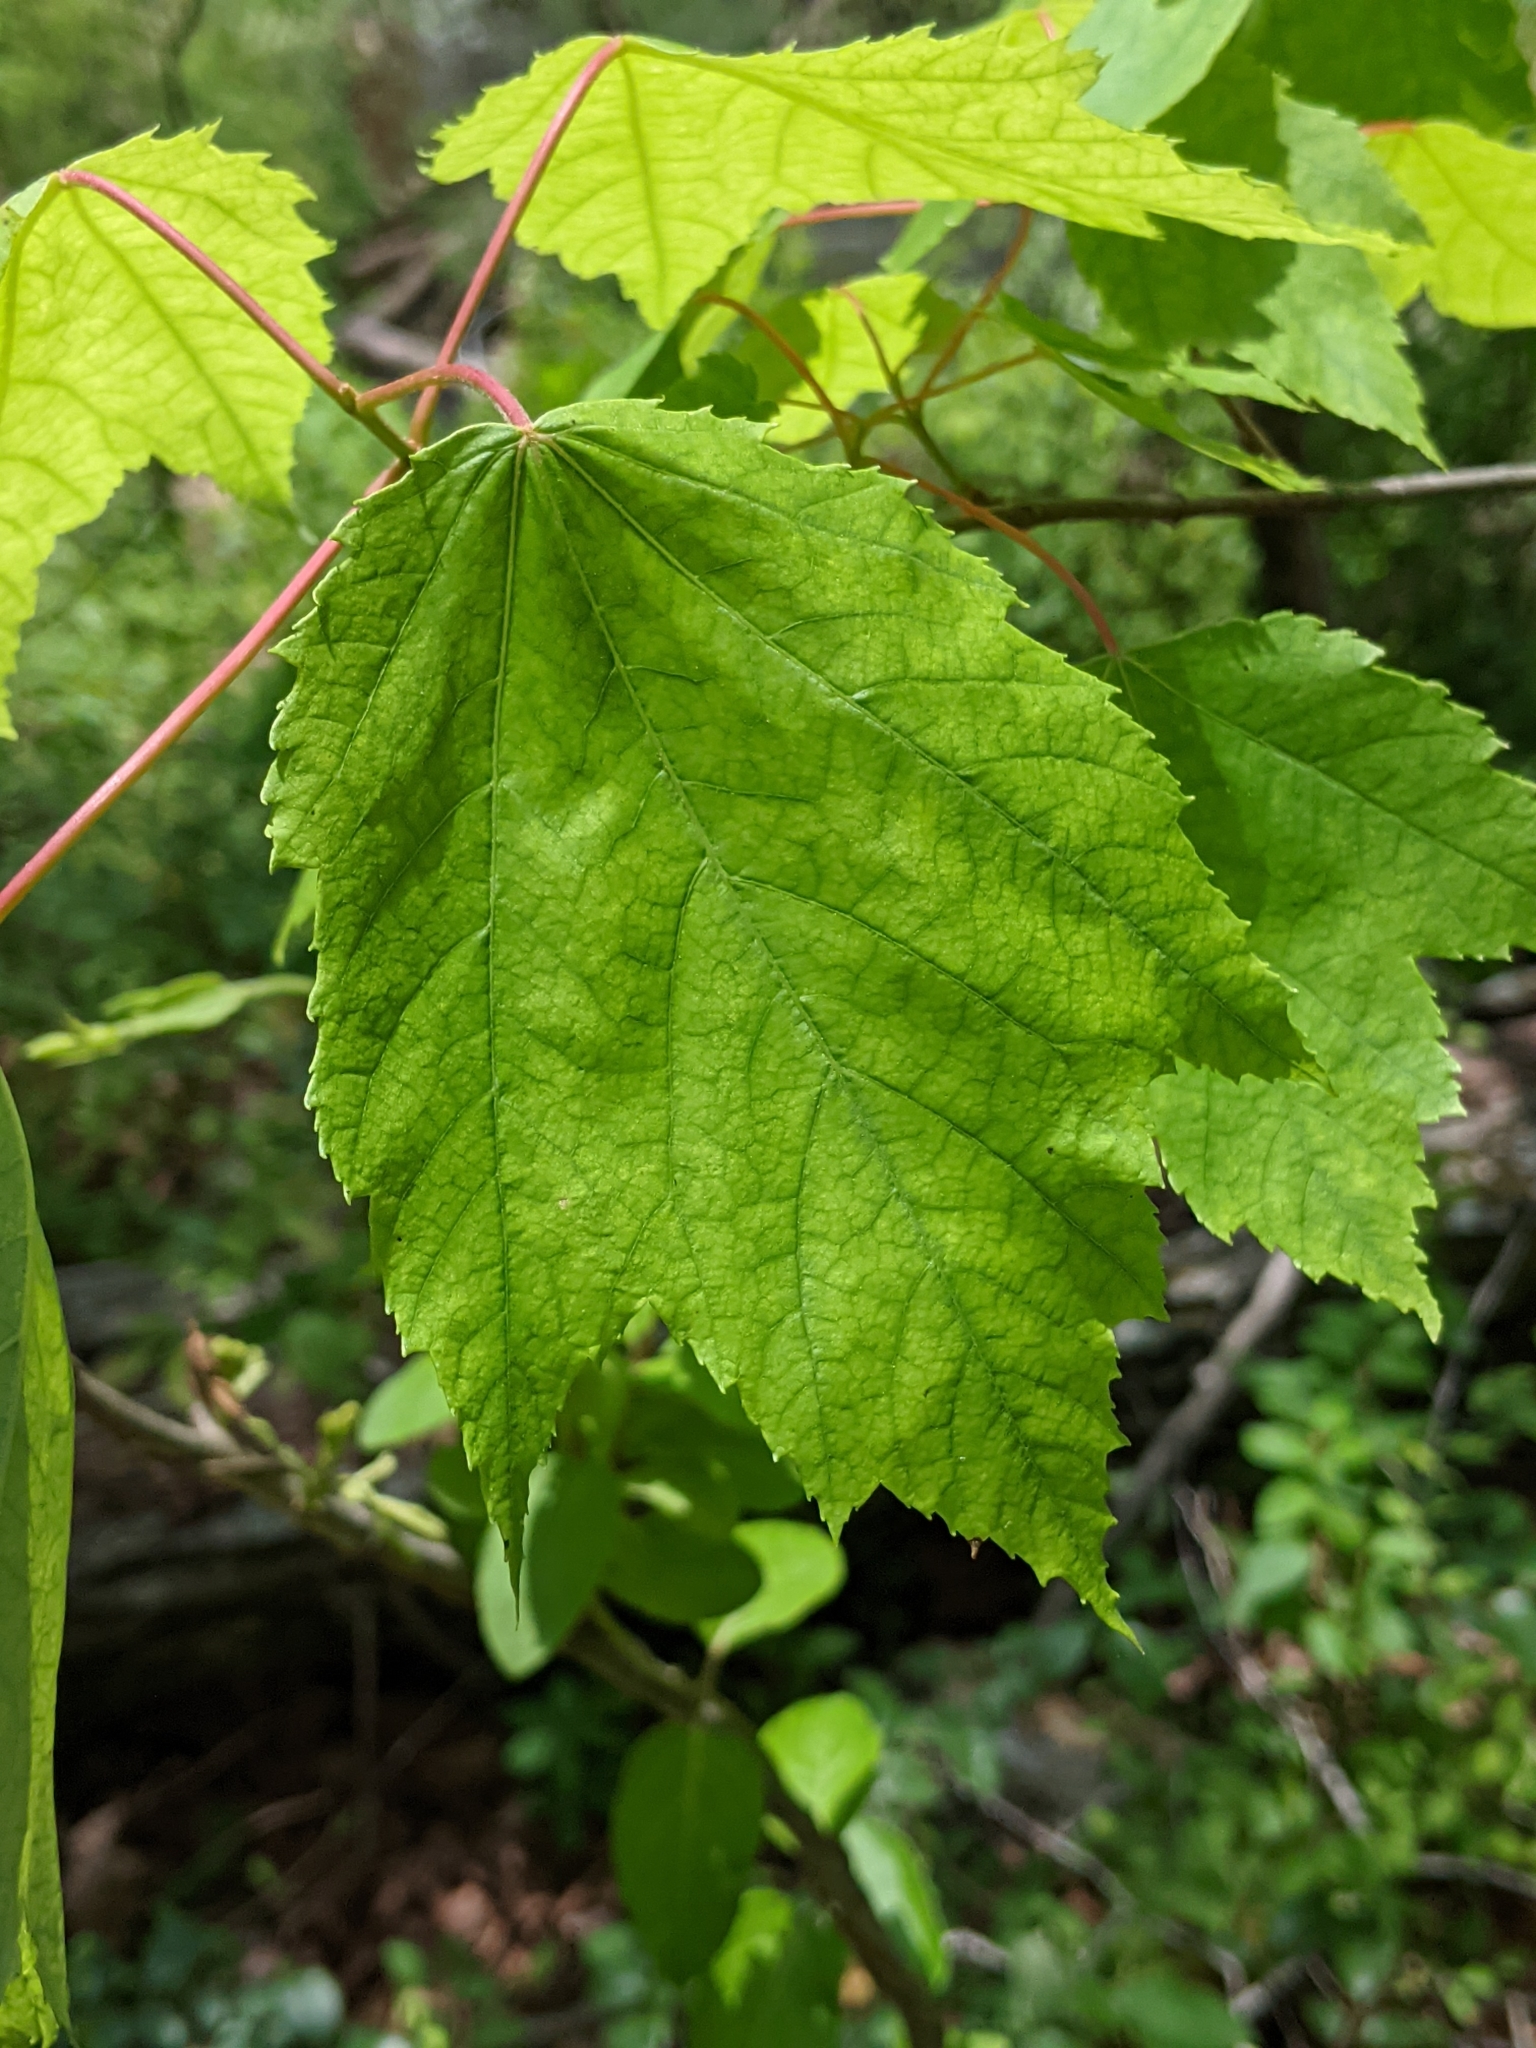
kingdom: Plantae
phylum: Tracheophyta
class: Magnoliopsida
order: Sapindales
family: Sapindaceae
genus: Acer
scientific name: Acer rubrum
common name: Red maple
